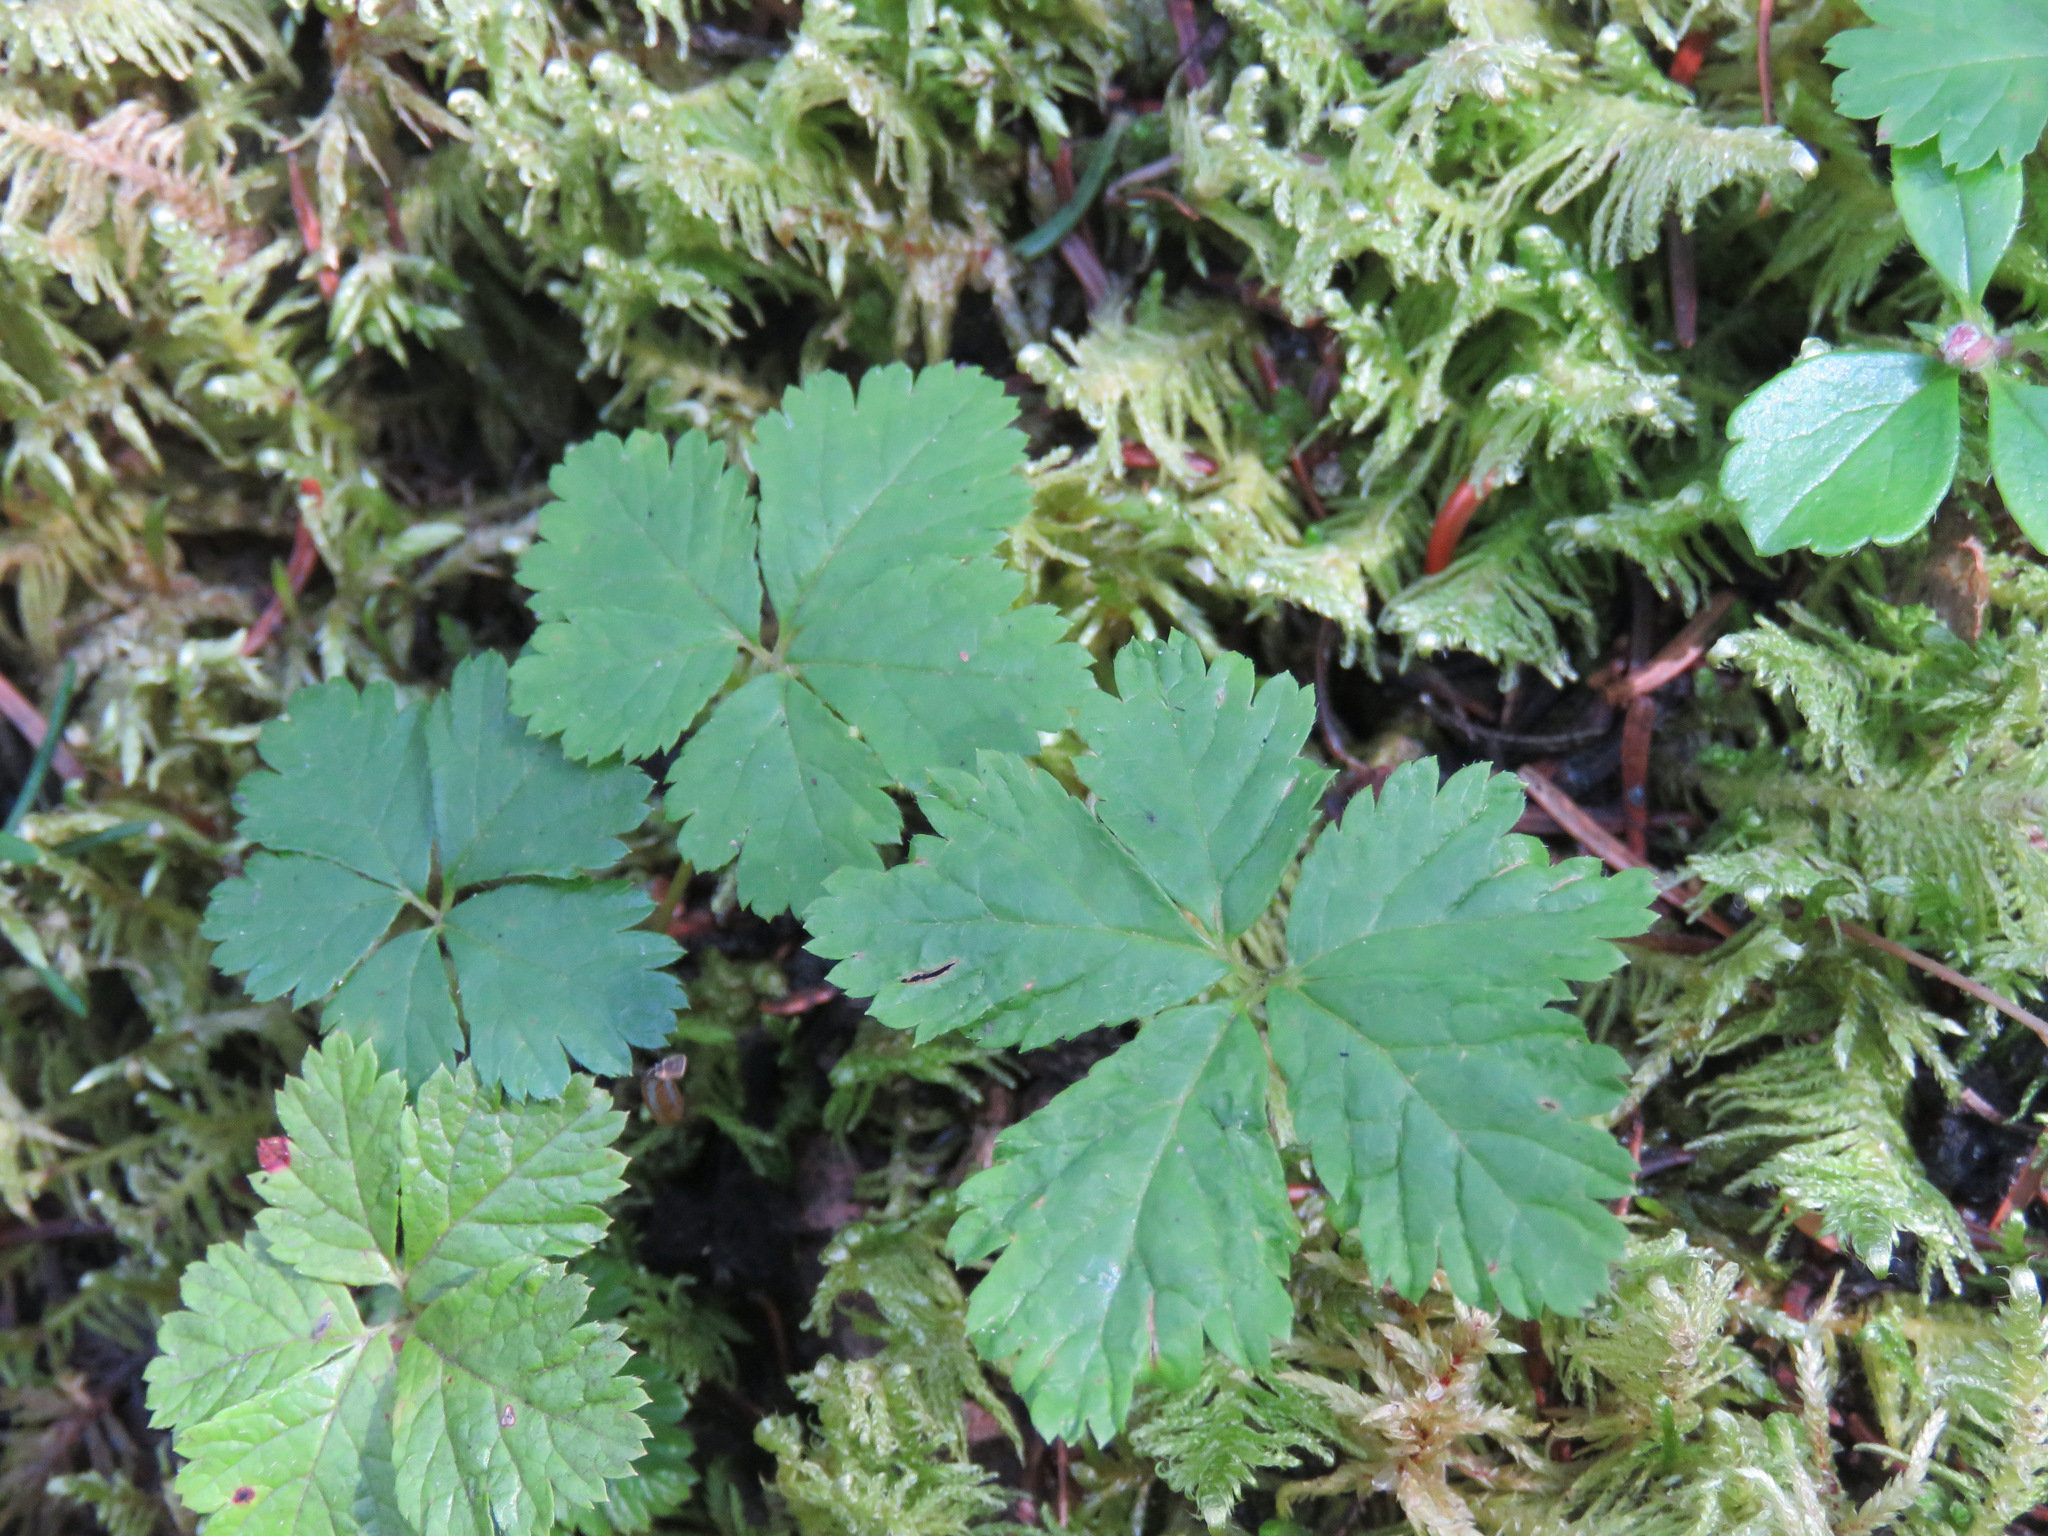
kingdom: Plantae
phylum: Tracheophyta
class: Magnoliopsida
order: Rosales
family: Rosaceae
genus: Rubus
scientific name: Rubus pedatus
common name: Creeping raspberry
